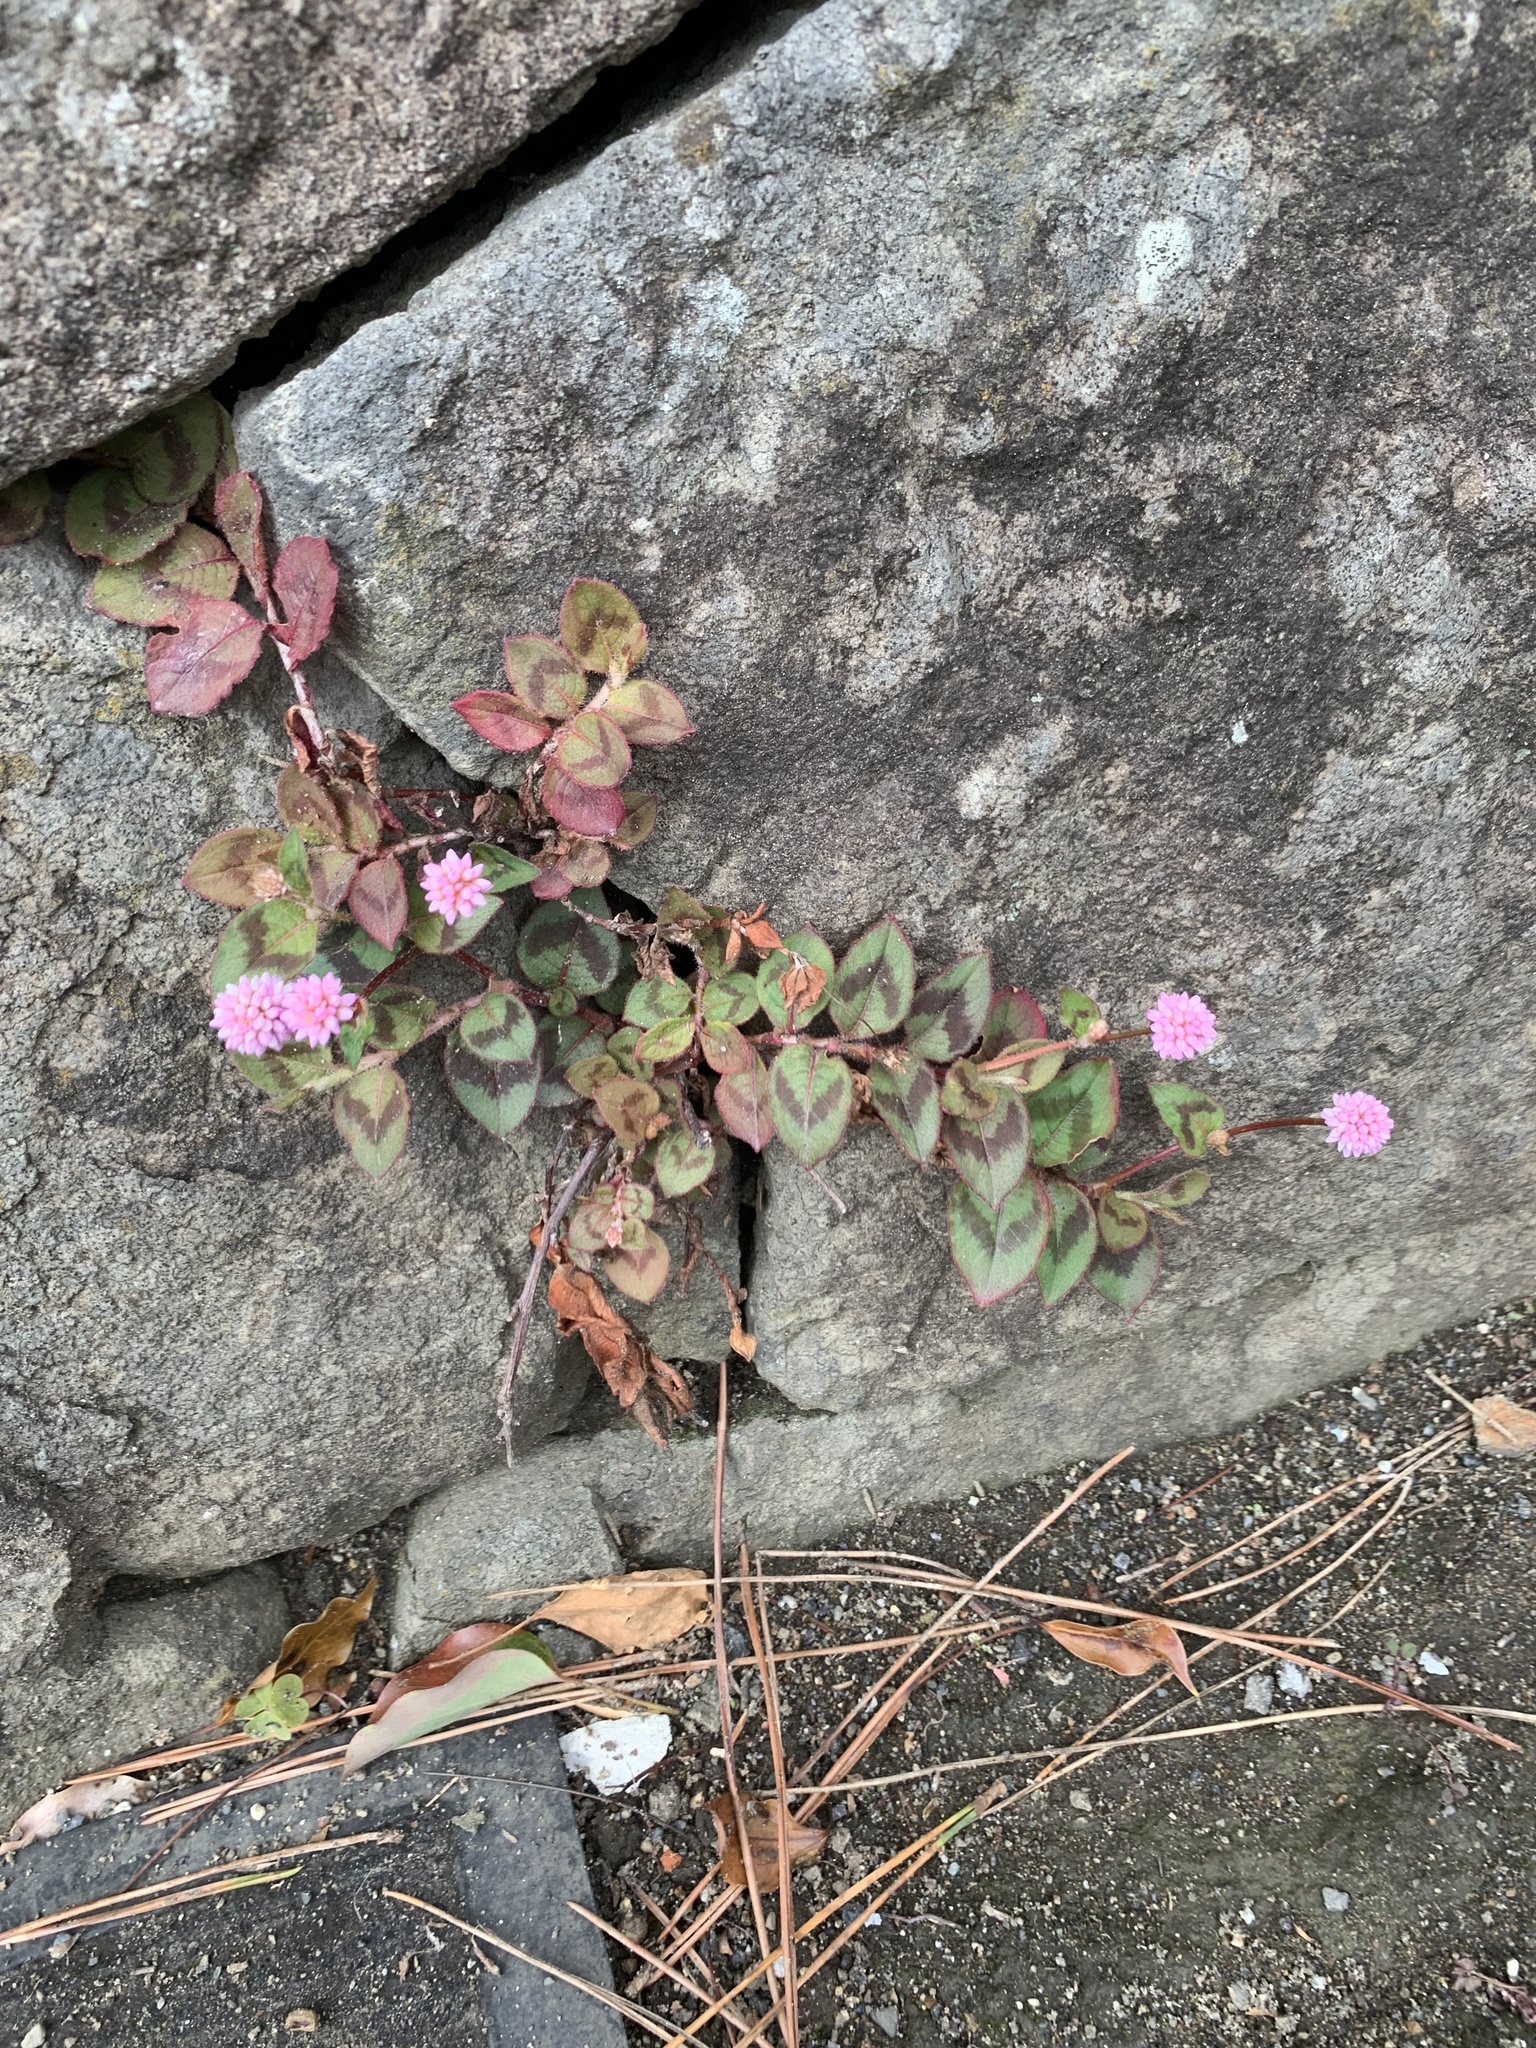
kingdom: Plantae
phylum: Tracheophyta
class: Magnoliopsida
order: Caryophyllales
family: Polygonaceae
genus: Persicaria
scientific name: Persicaria capitata
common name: Pinkhead smartweed
